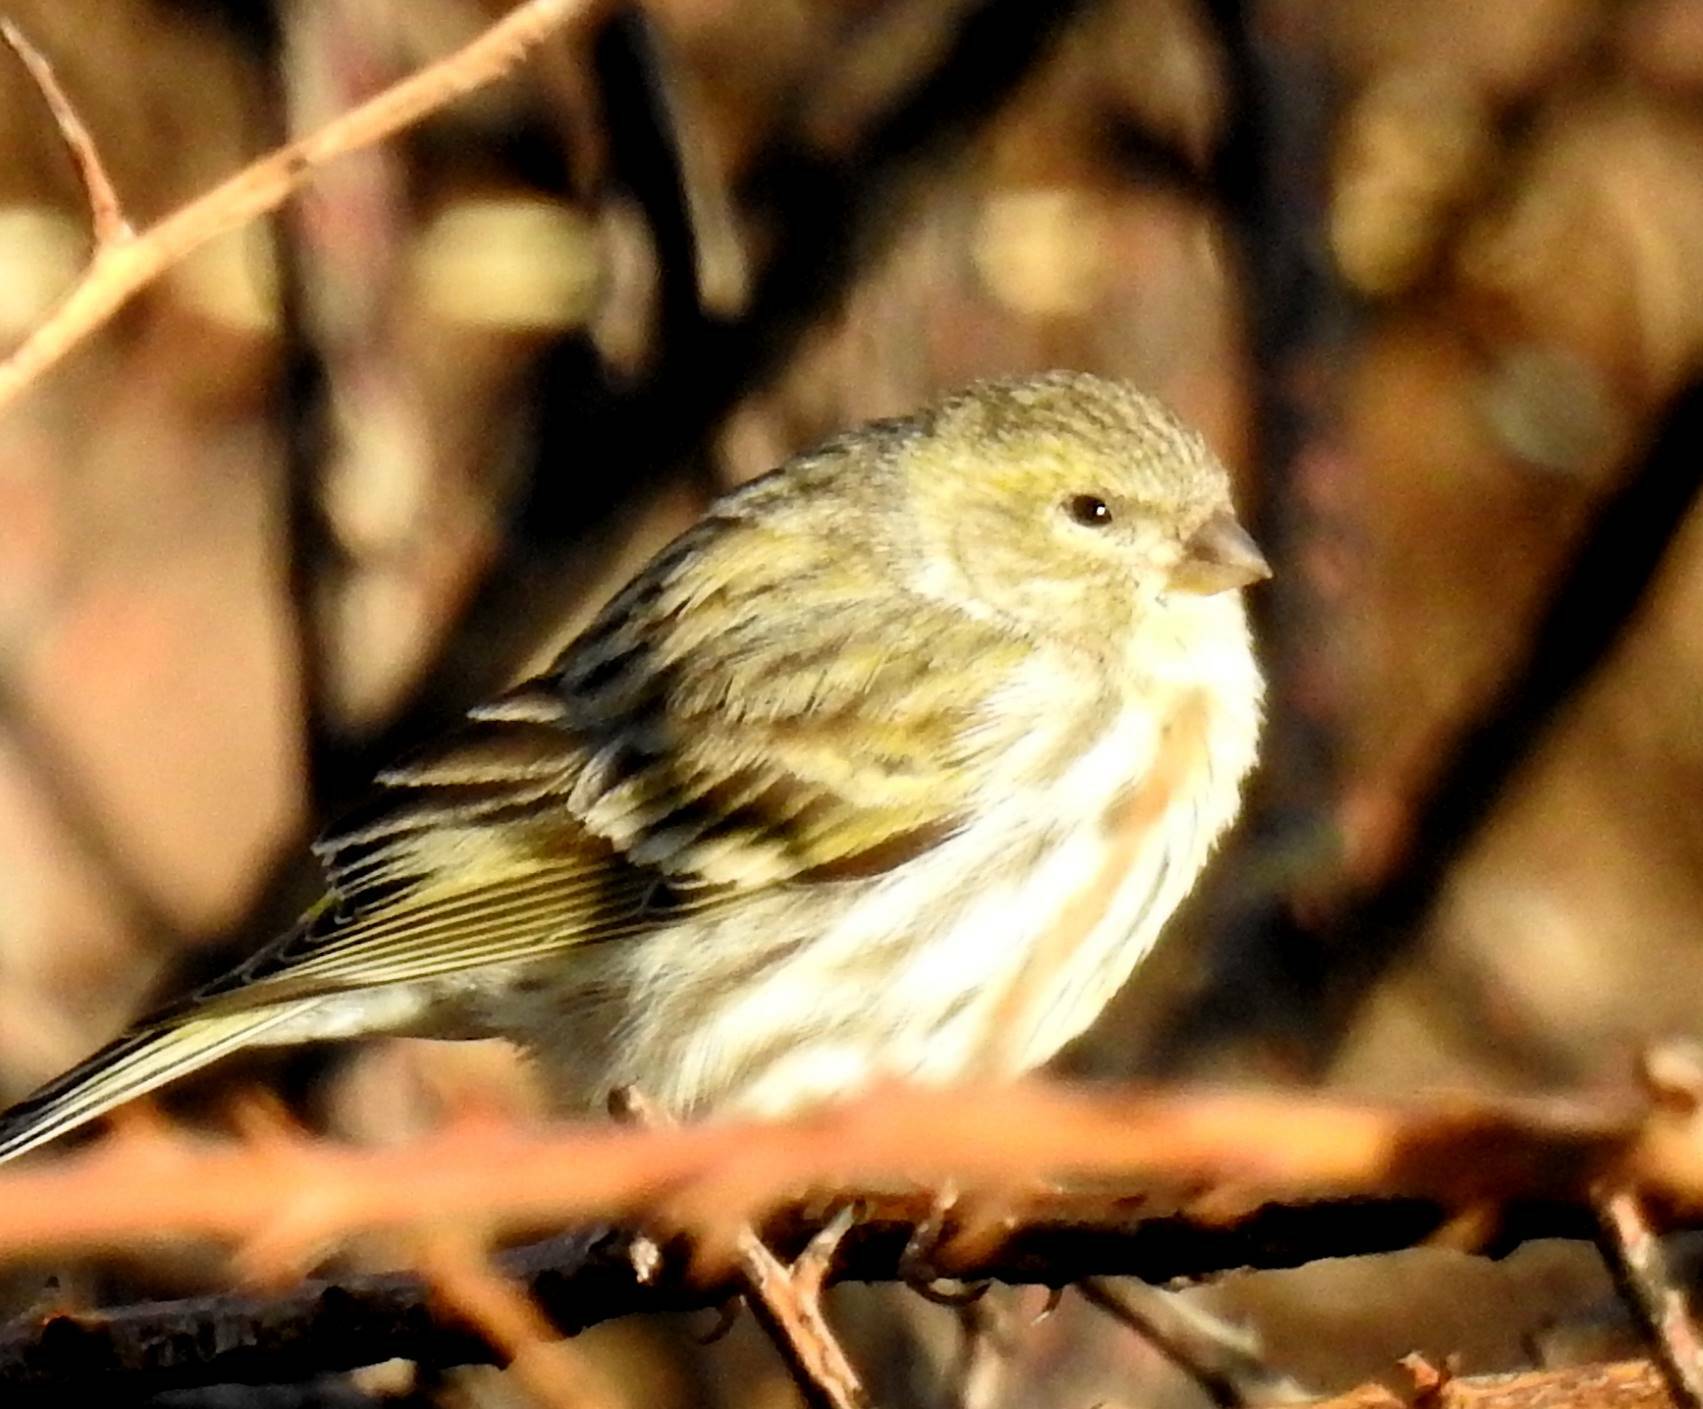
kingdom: Animalia
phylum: Chordata
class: Aves
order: Passeriformes
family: Fringillidae
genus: Serinus
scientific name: Serinus serinus
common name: European serin
